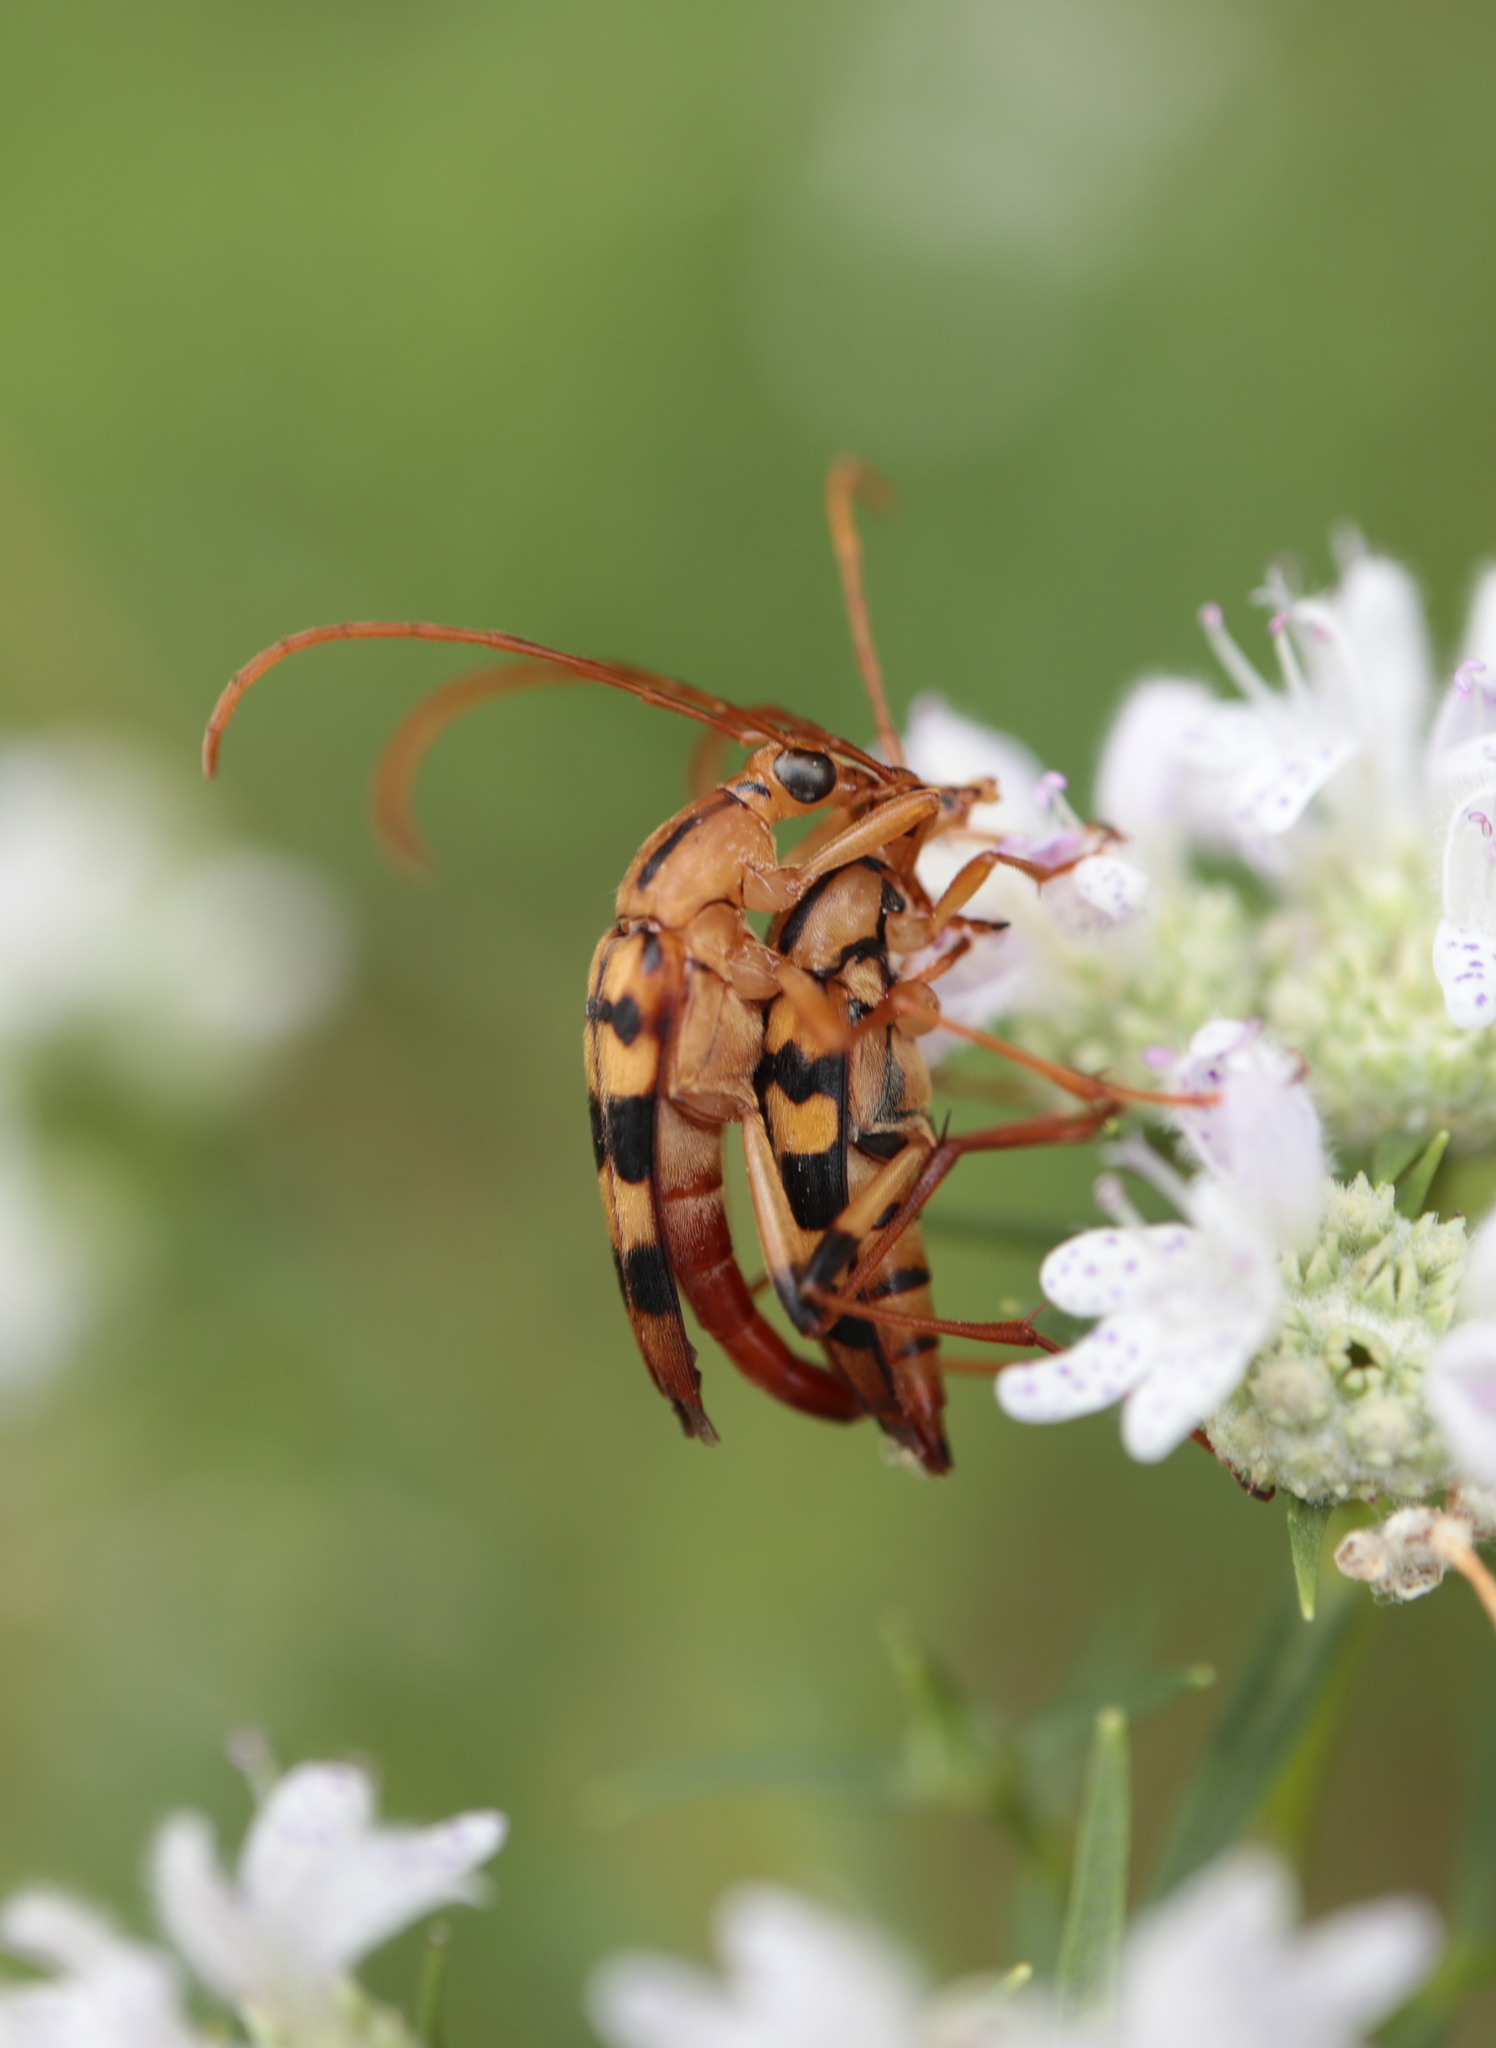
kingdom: Animalia
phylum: Arthropoda
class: Insecta
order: Coleoptera
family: Cerambycidae
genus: Strangalia
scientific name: Strangalia luteicornis
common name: Yellow-horned flower longhorn beetle
